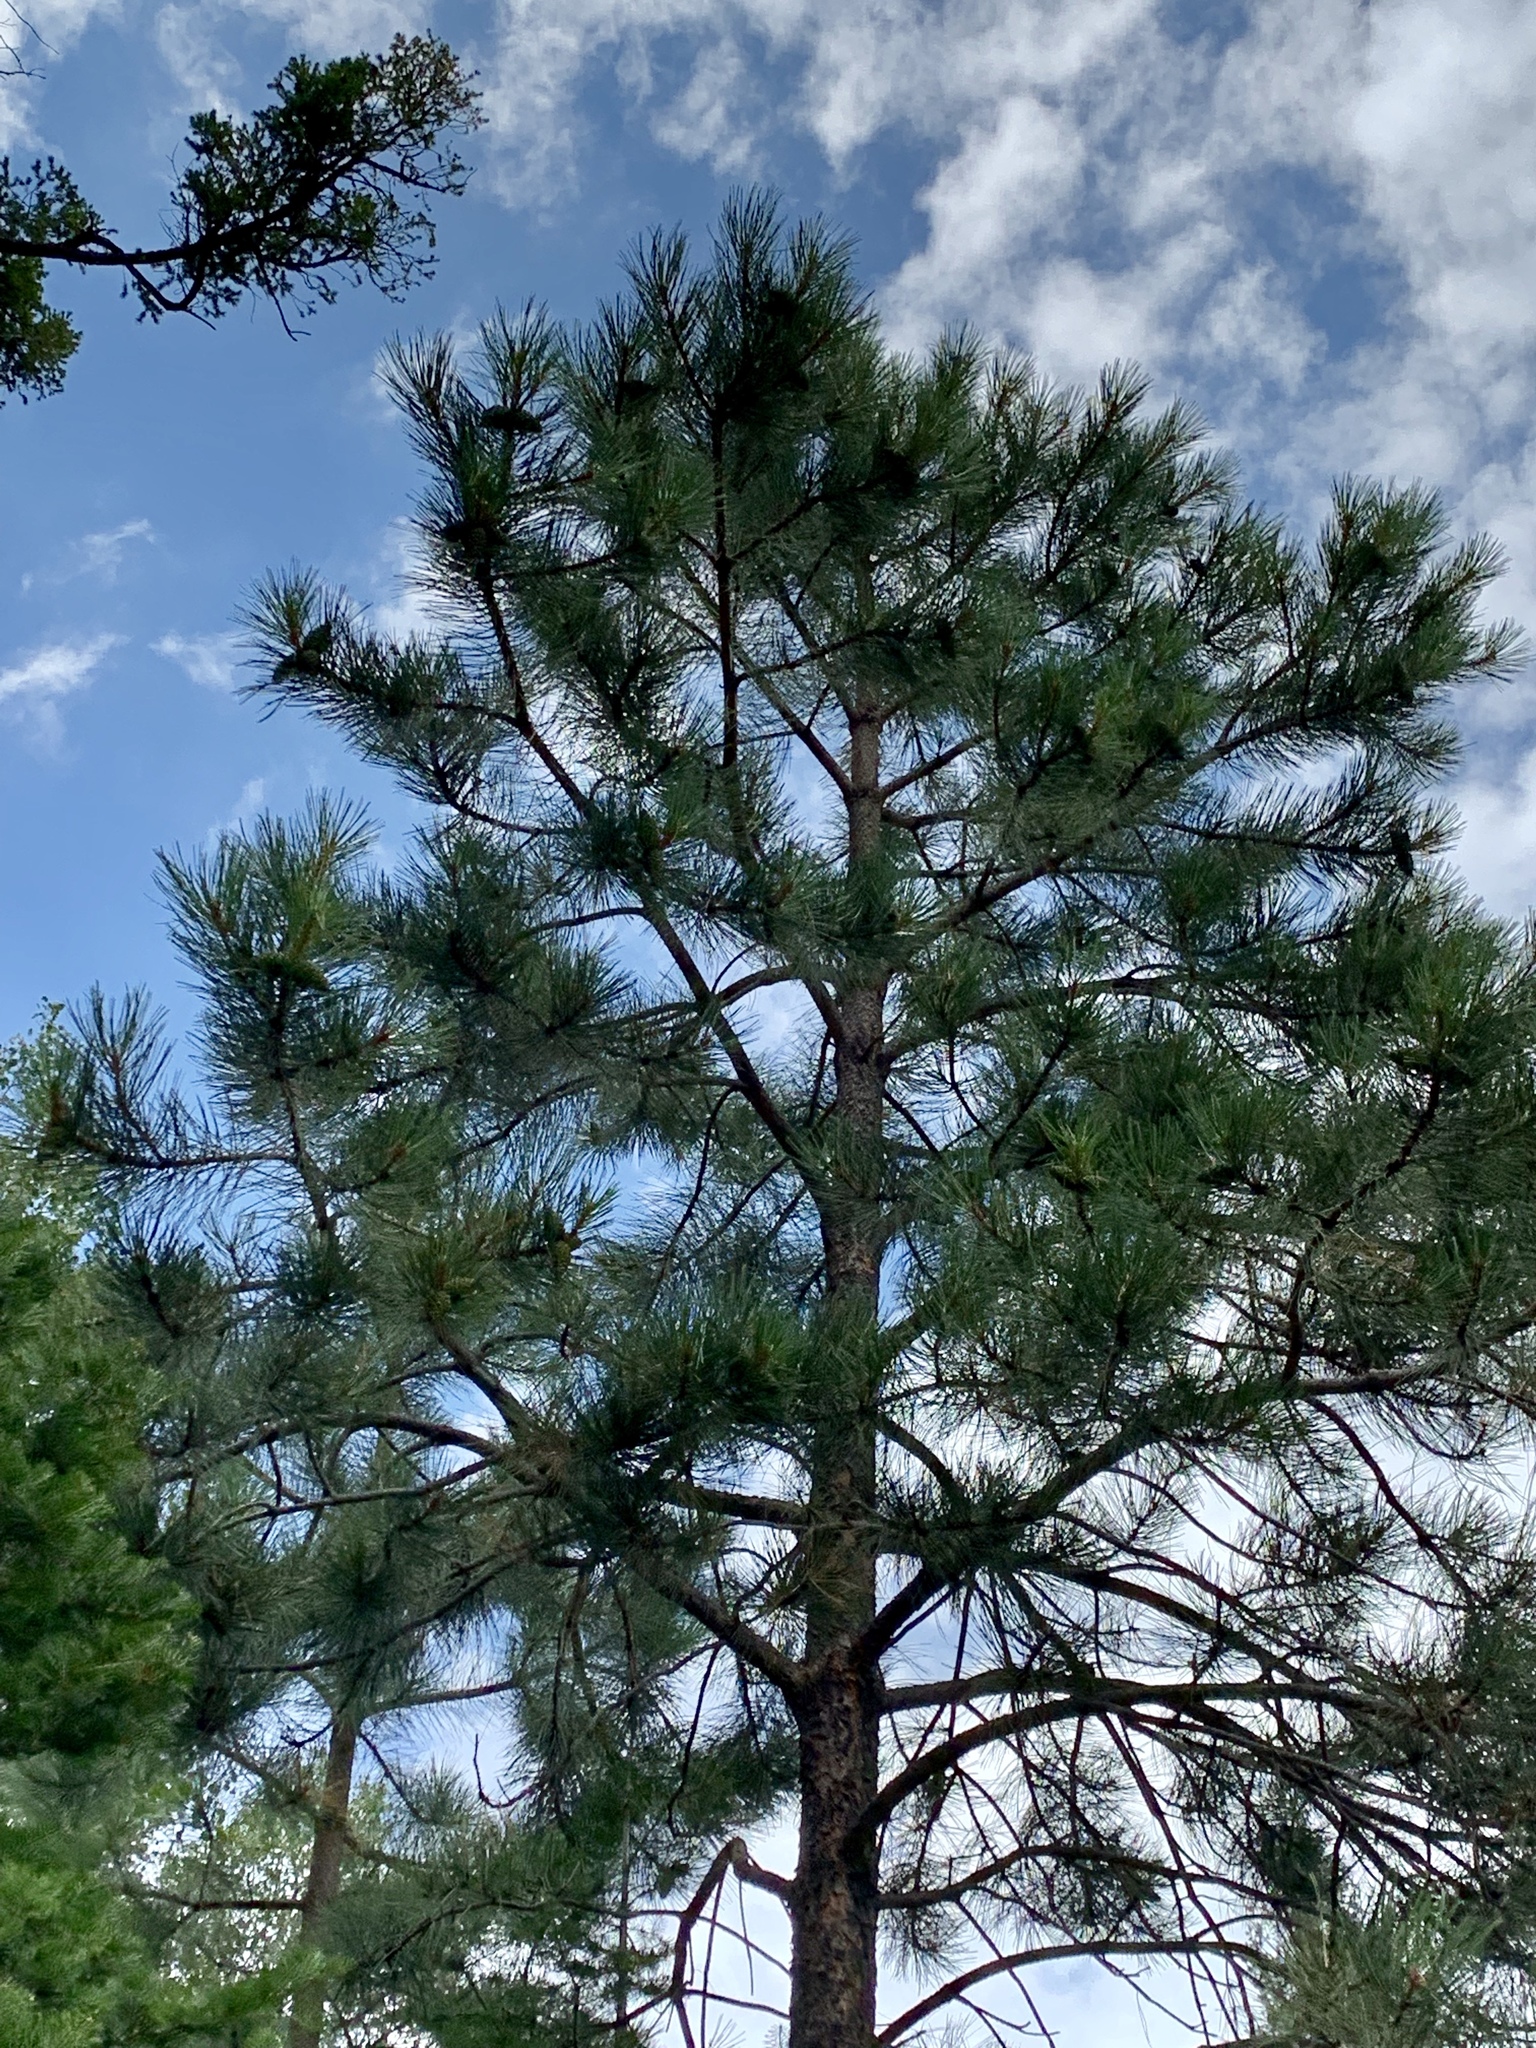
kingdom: Plantae
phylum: Tracheophyta
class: Pinopsida
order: Pinales
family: Pinaceae
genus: Pinus
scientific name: Pinus ponderosa
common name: Western yellow-pine
